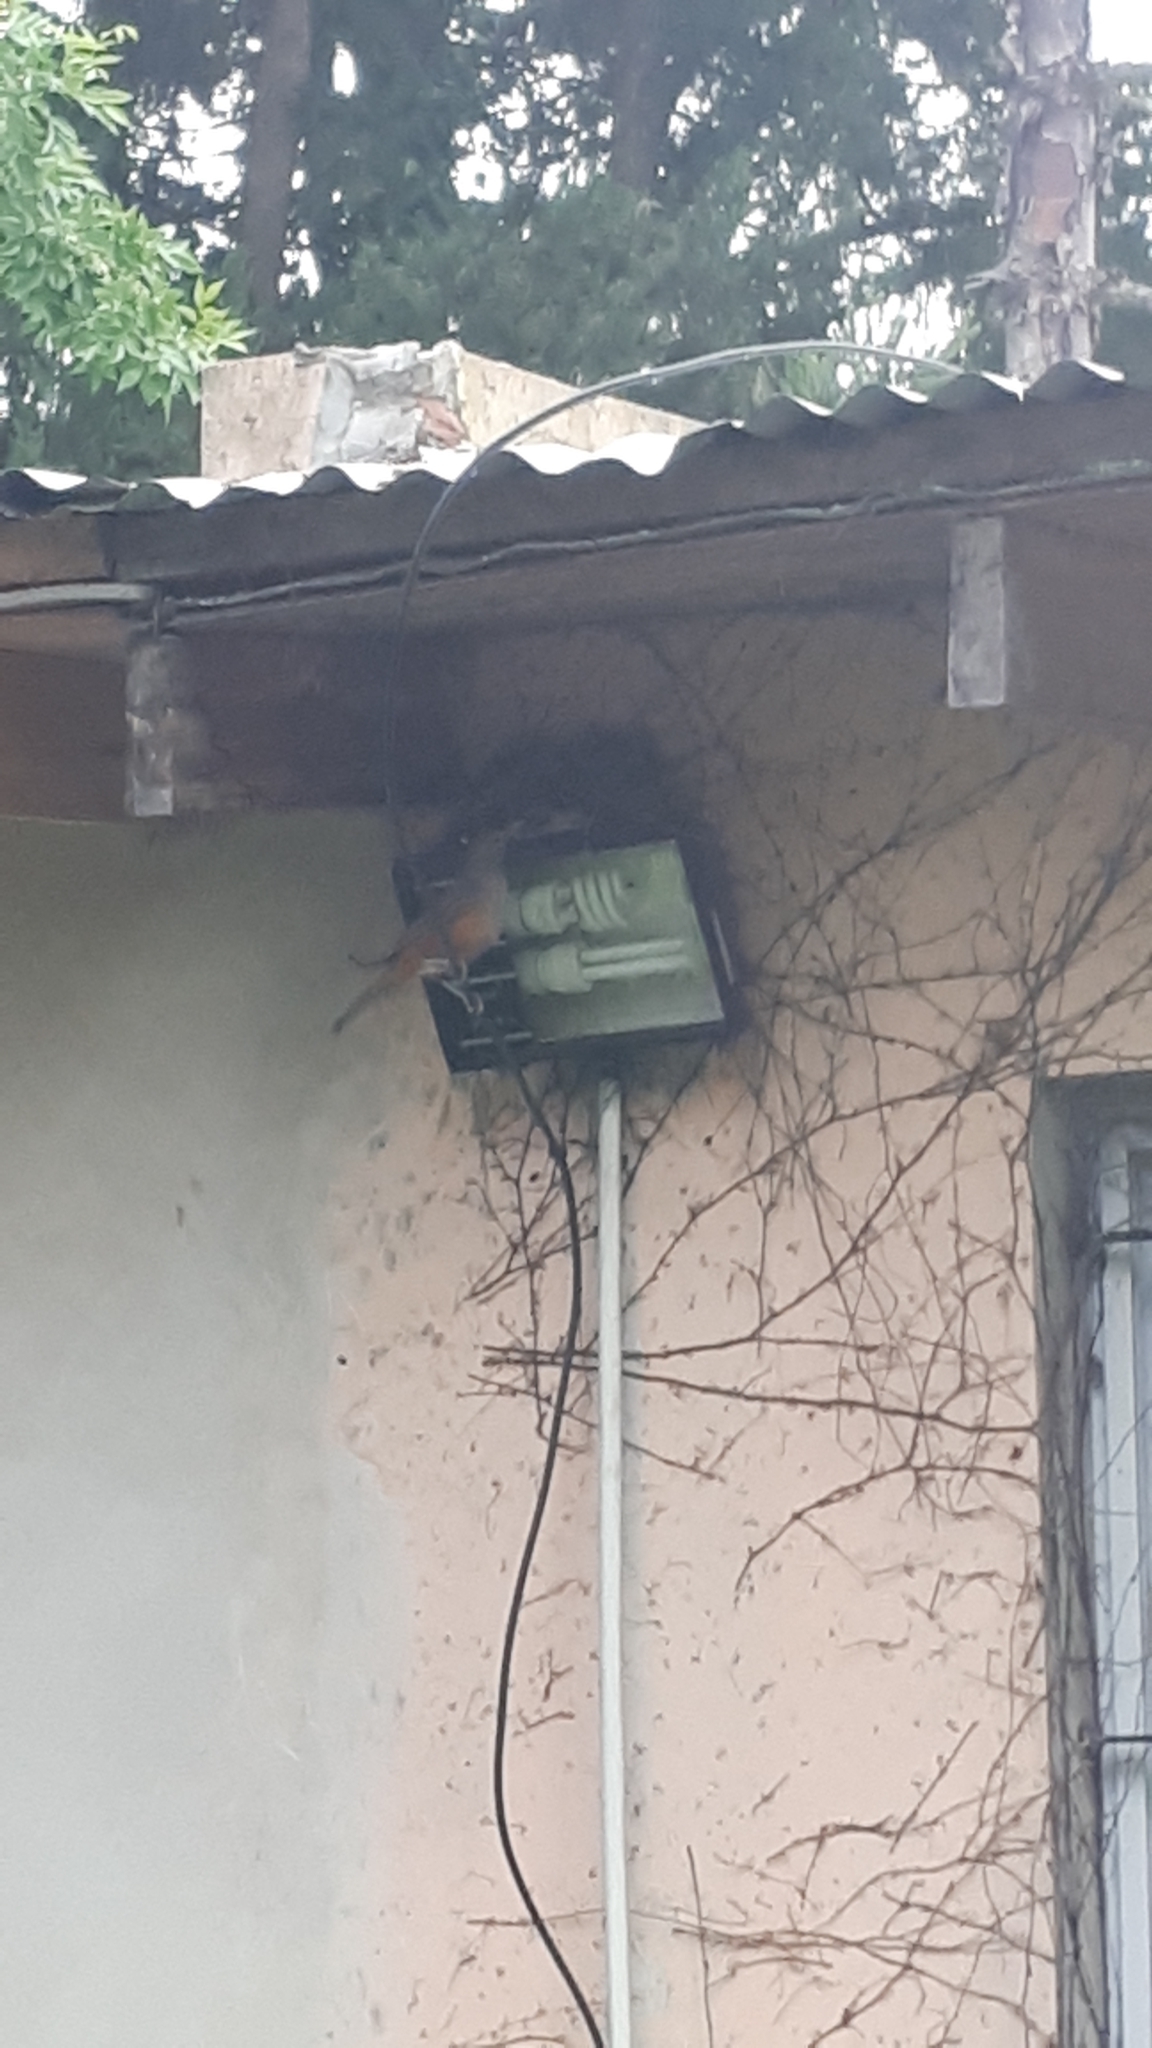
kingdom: Animalia
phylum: Chordata
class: Aves
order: Passeriformes
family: Turdidae
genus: Turdus
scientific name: Turdus rufiventris
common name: Rufous-bellied thrush
